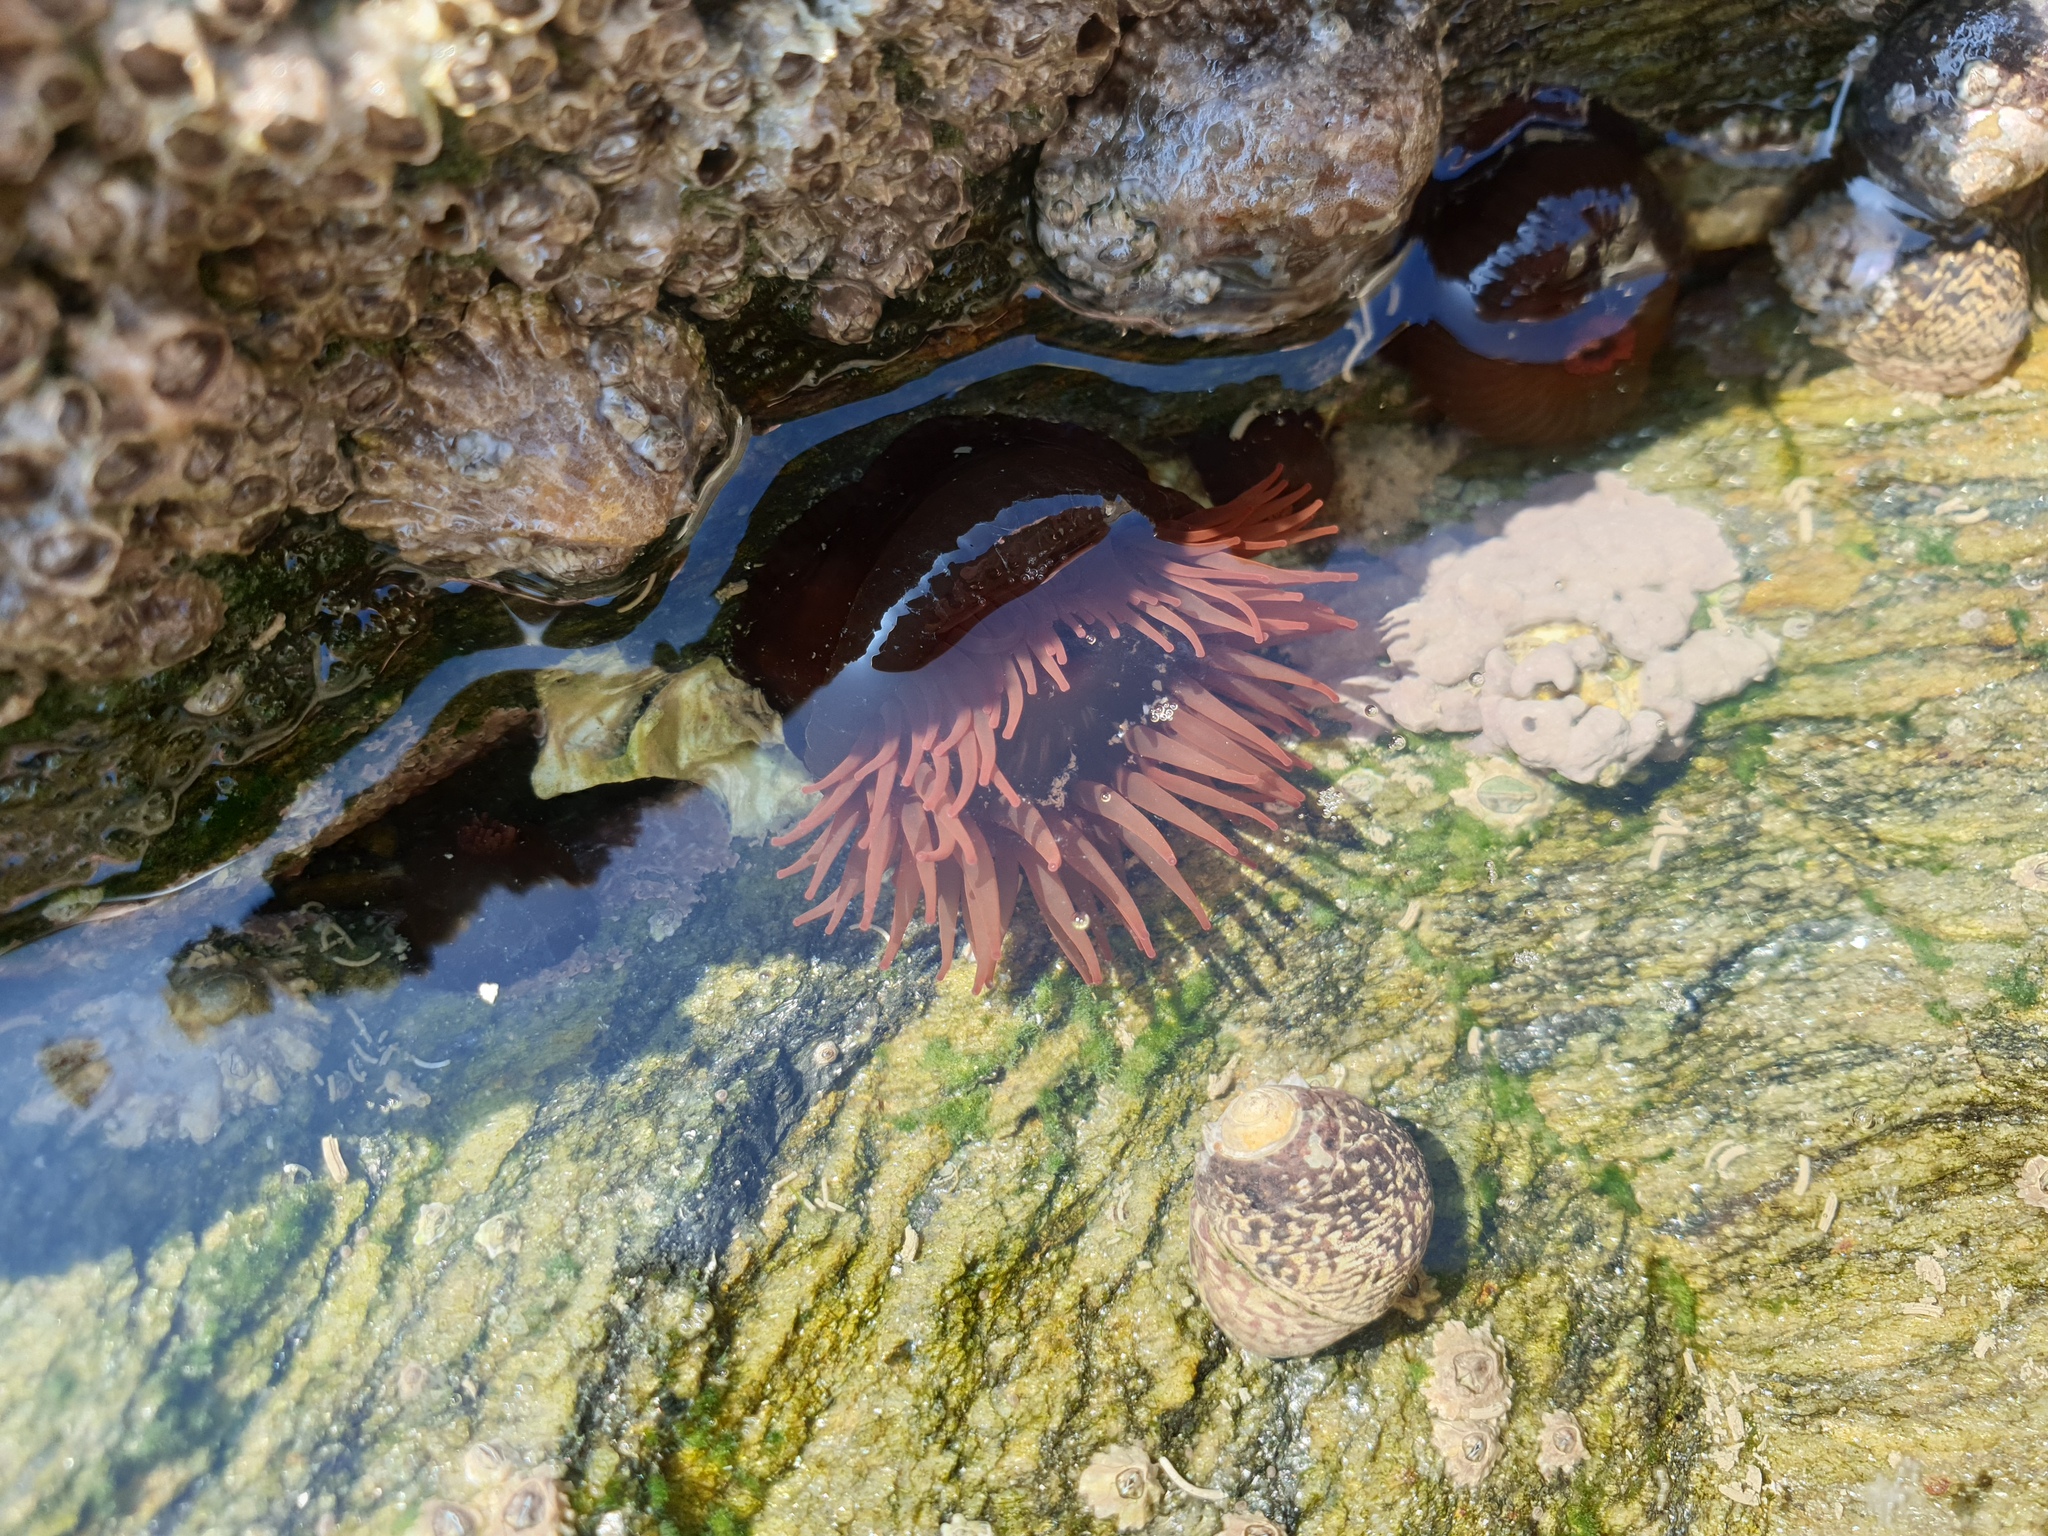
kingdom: Animalia
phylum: Cnidaria
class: Anthozoa
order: Actiniaria
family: Actiniidae
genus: Actinia
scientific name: Actinia equina
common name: Beadlet anemone
